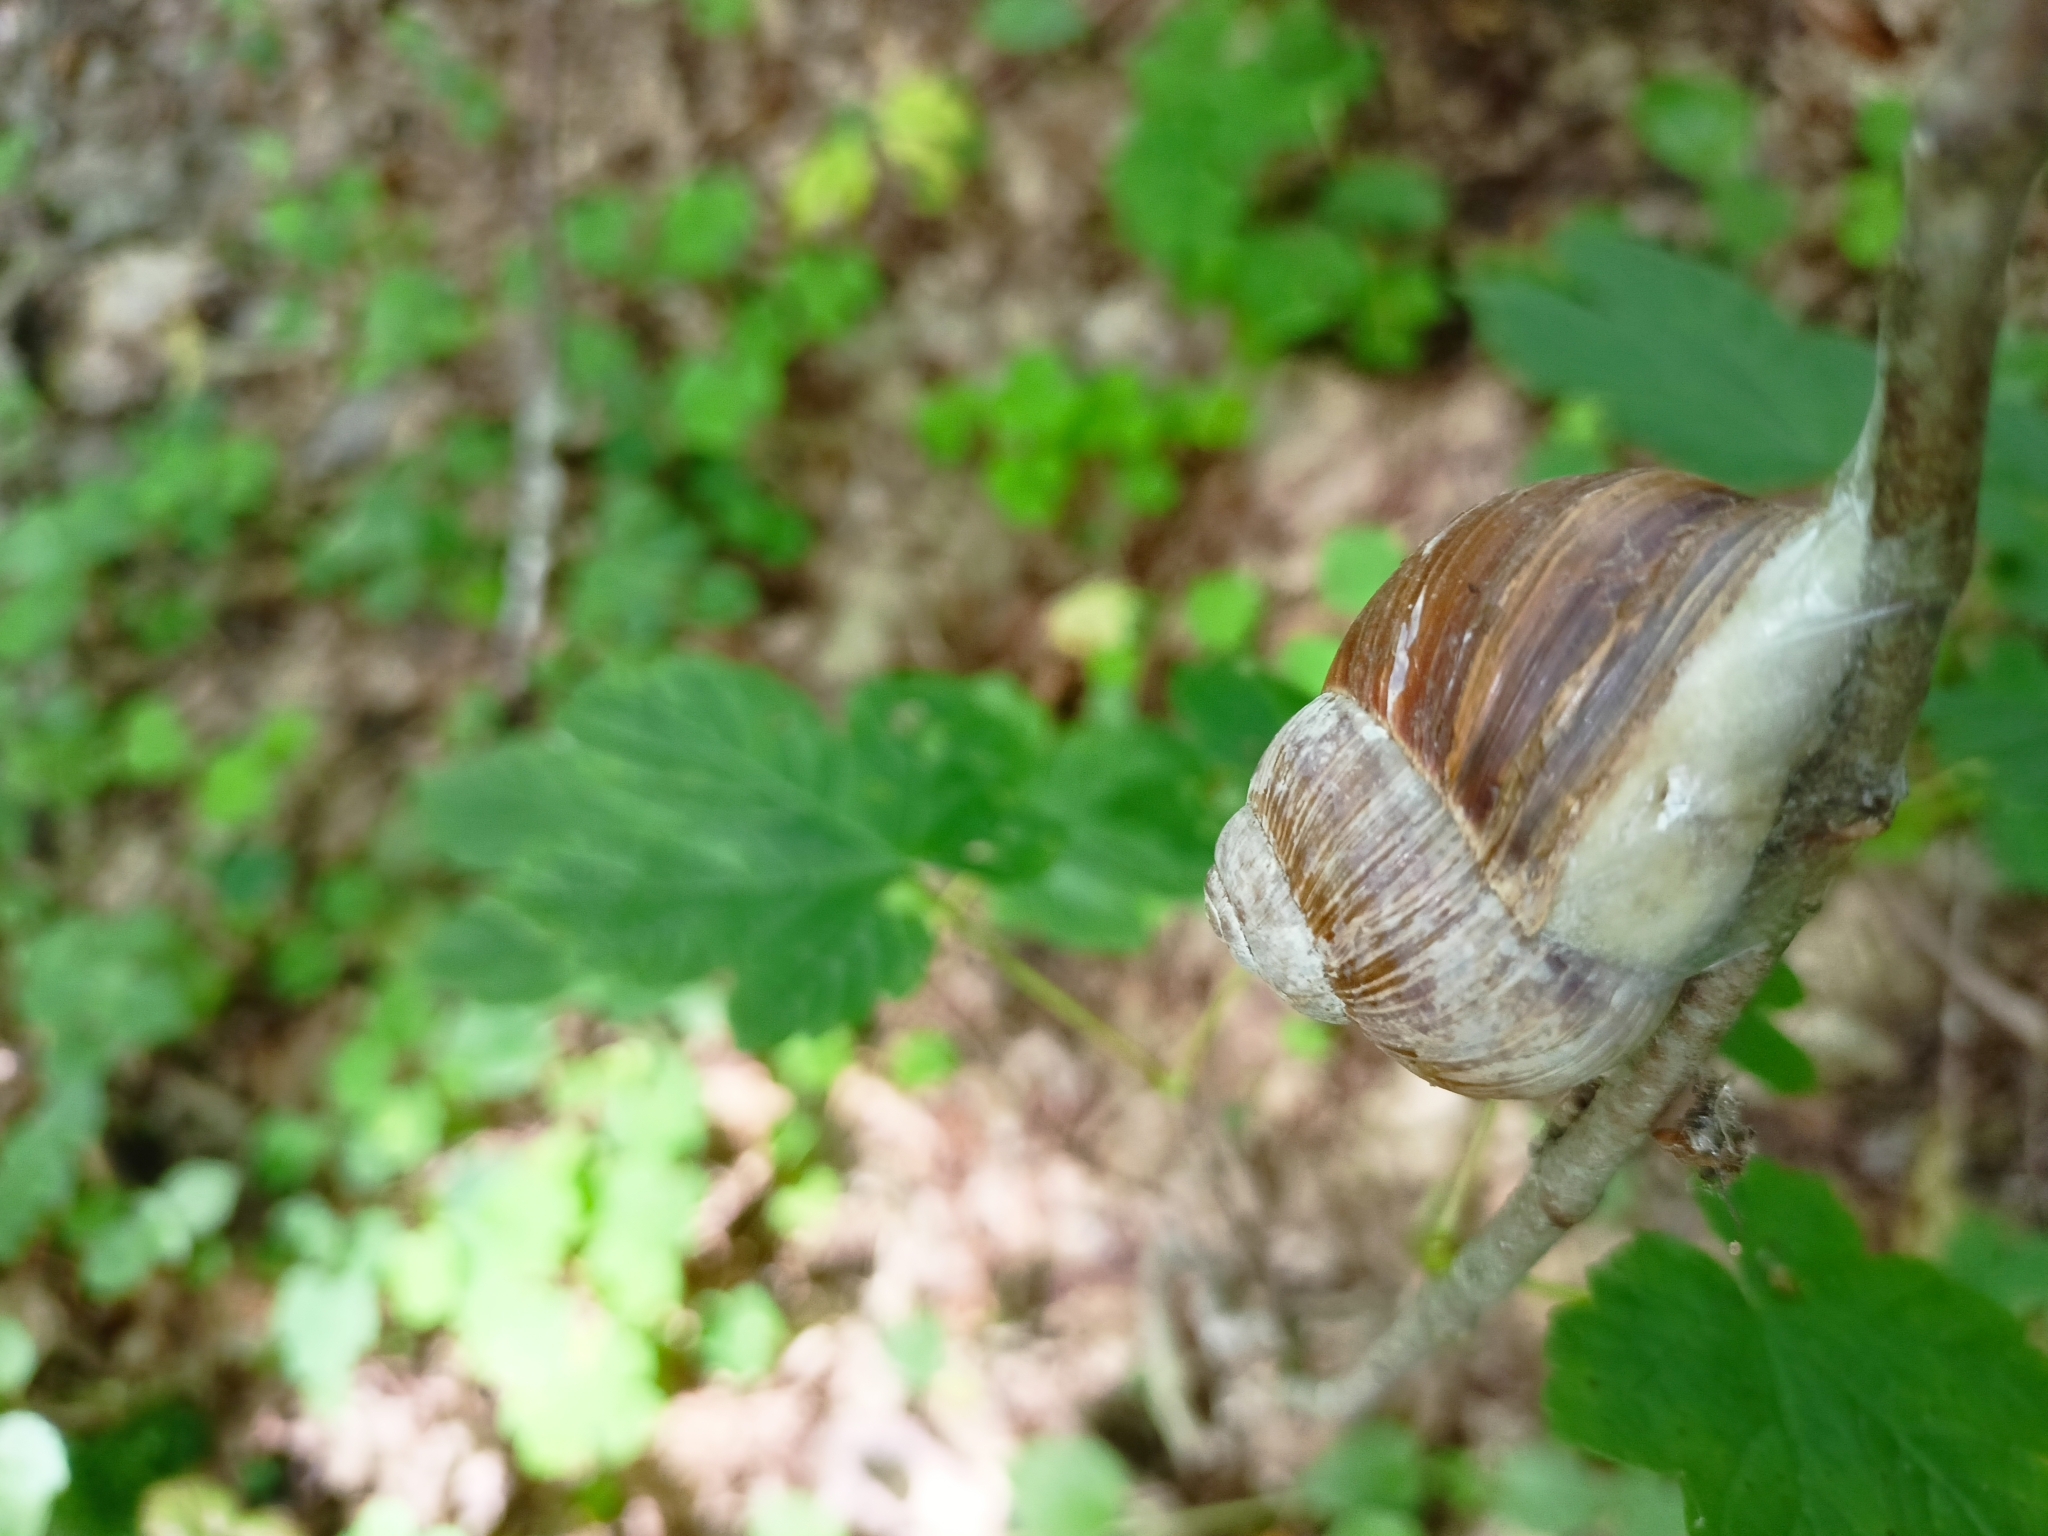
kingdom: Animalia
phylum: Mollusca
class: Gastropoda
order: Stylommatophora
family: Helicidae
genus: Helix
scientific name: Helix pomatia
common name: Roman snail
